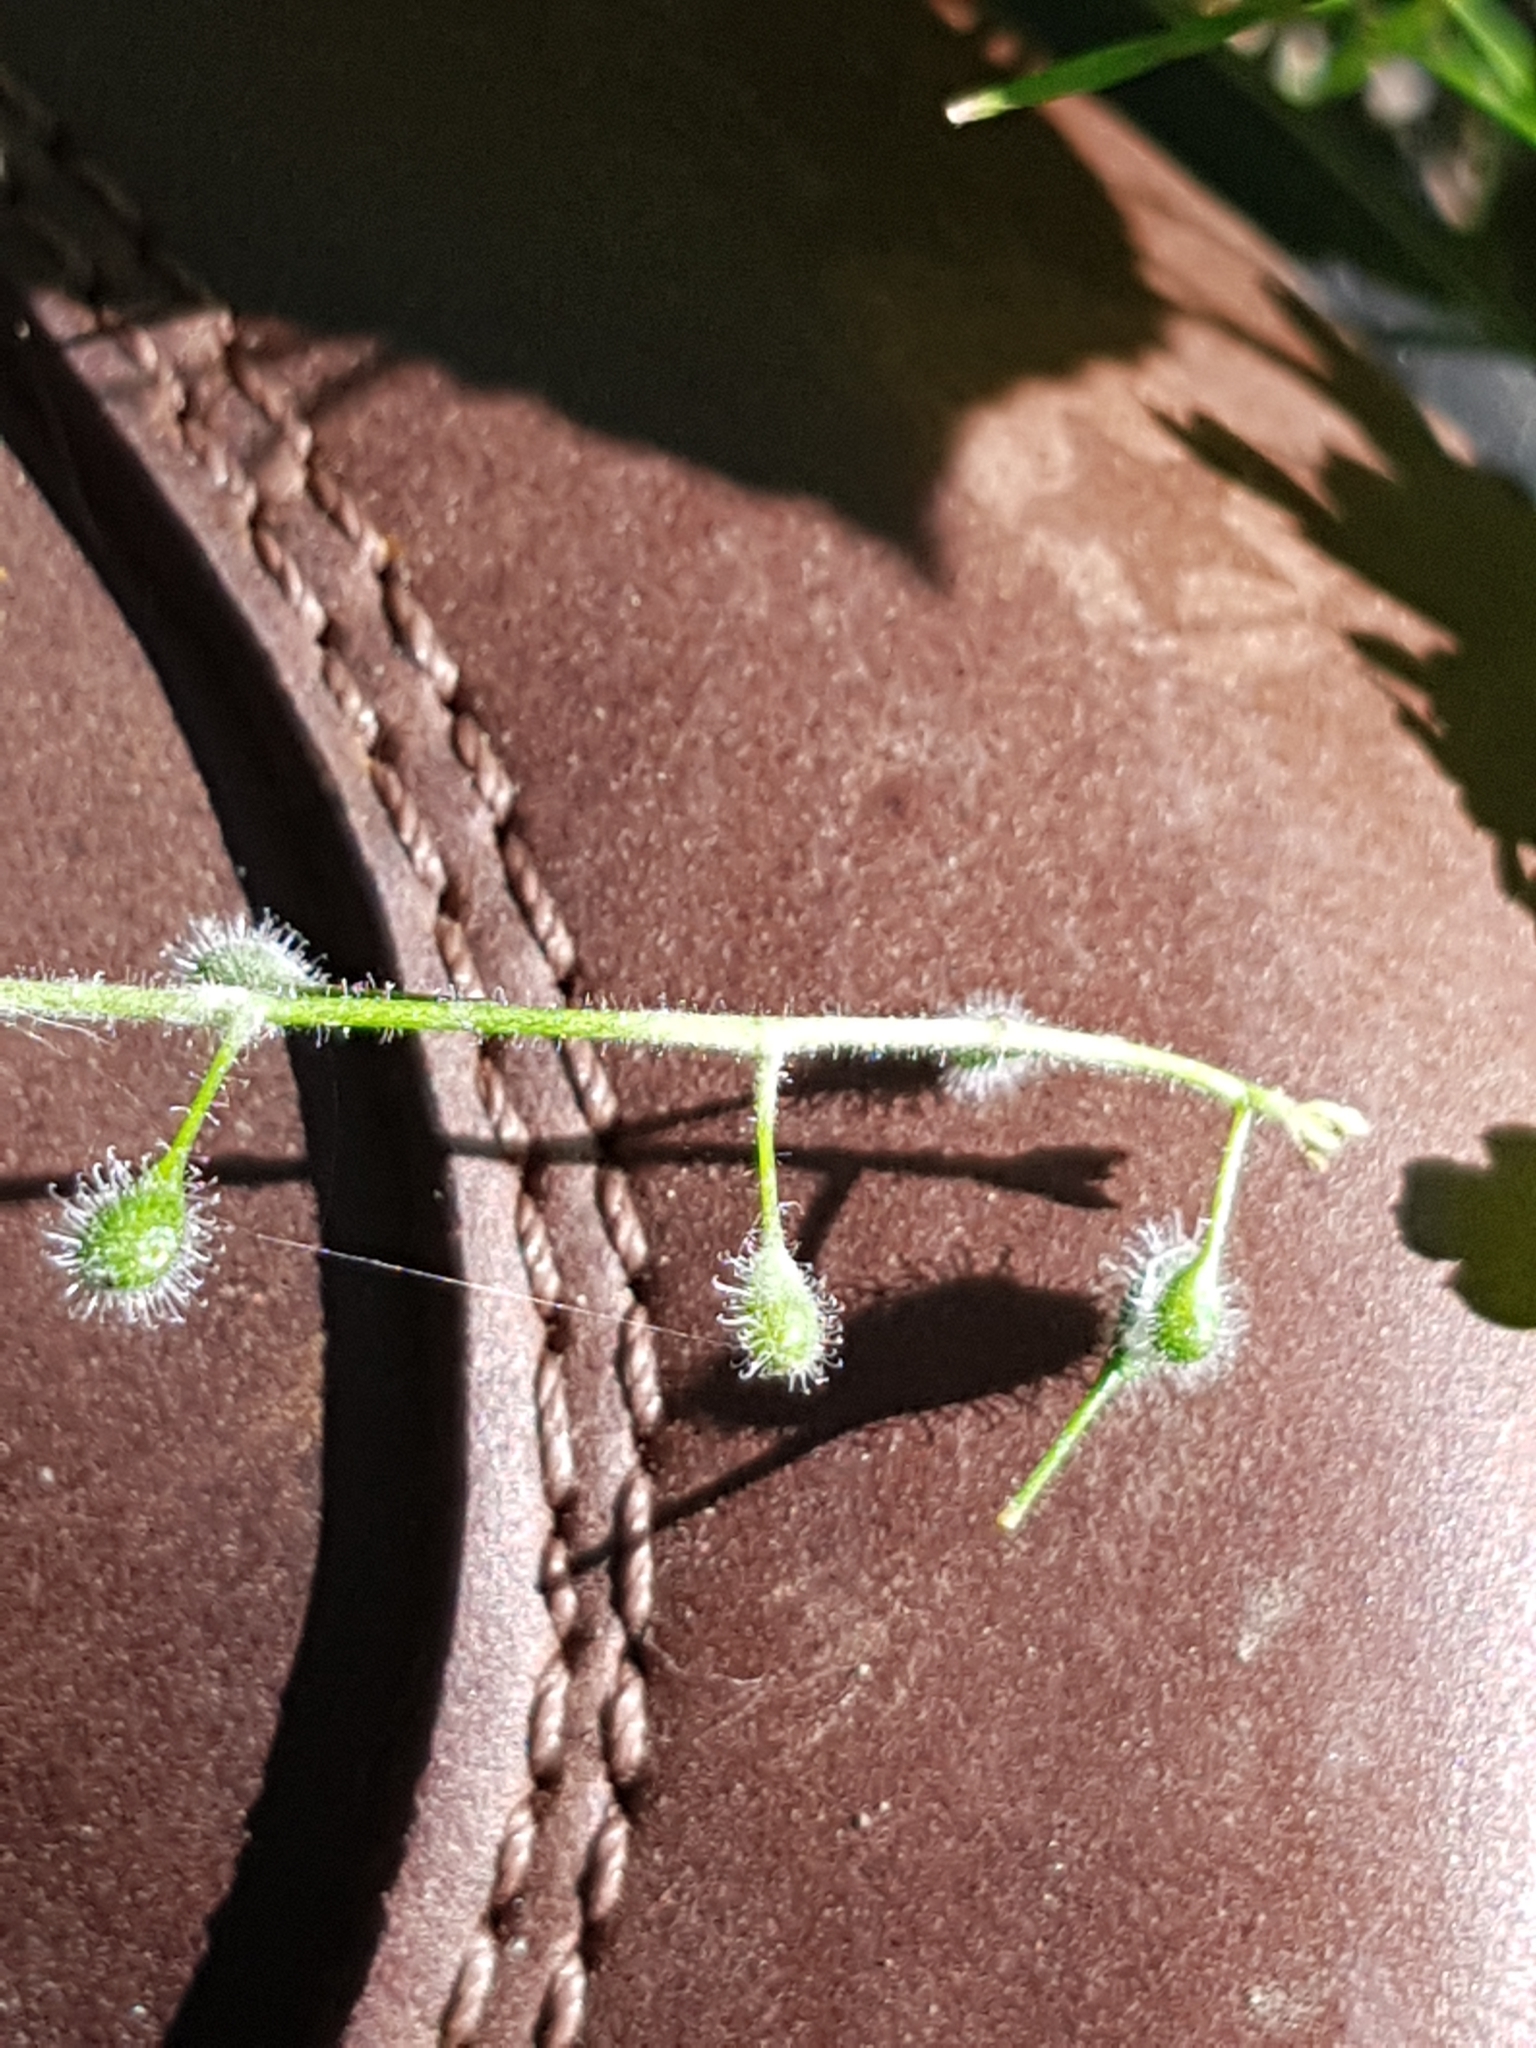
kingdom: Plantae
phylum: Tracheophyta
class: Magnoliopsida
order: Myrtales
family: Onagraceae
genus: Circaea
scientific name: Circaea lutetiana
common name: Enchanter's-nightshade
